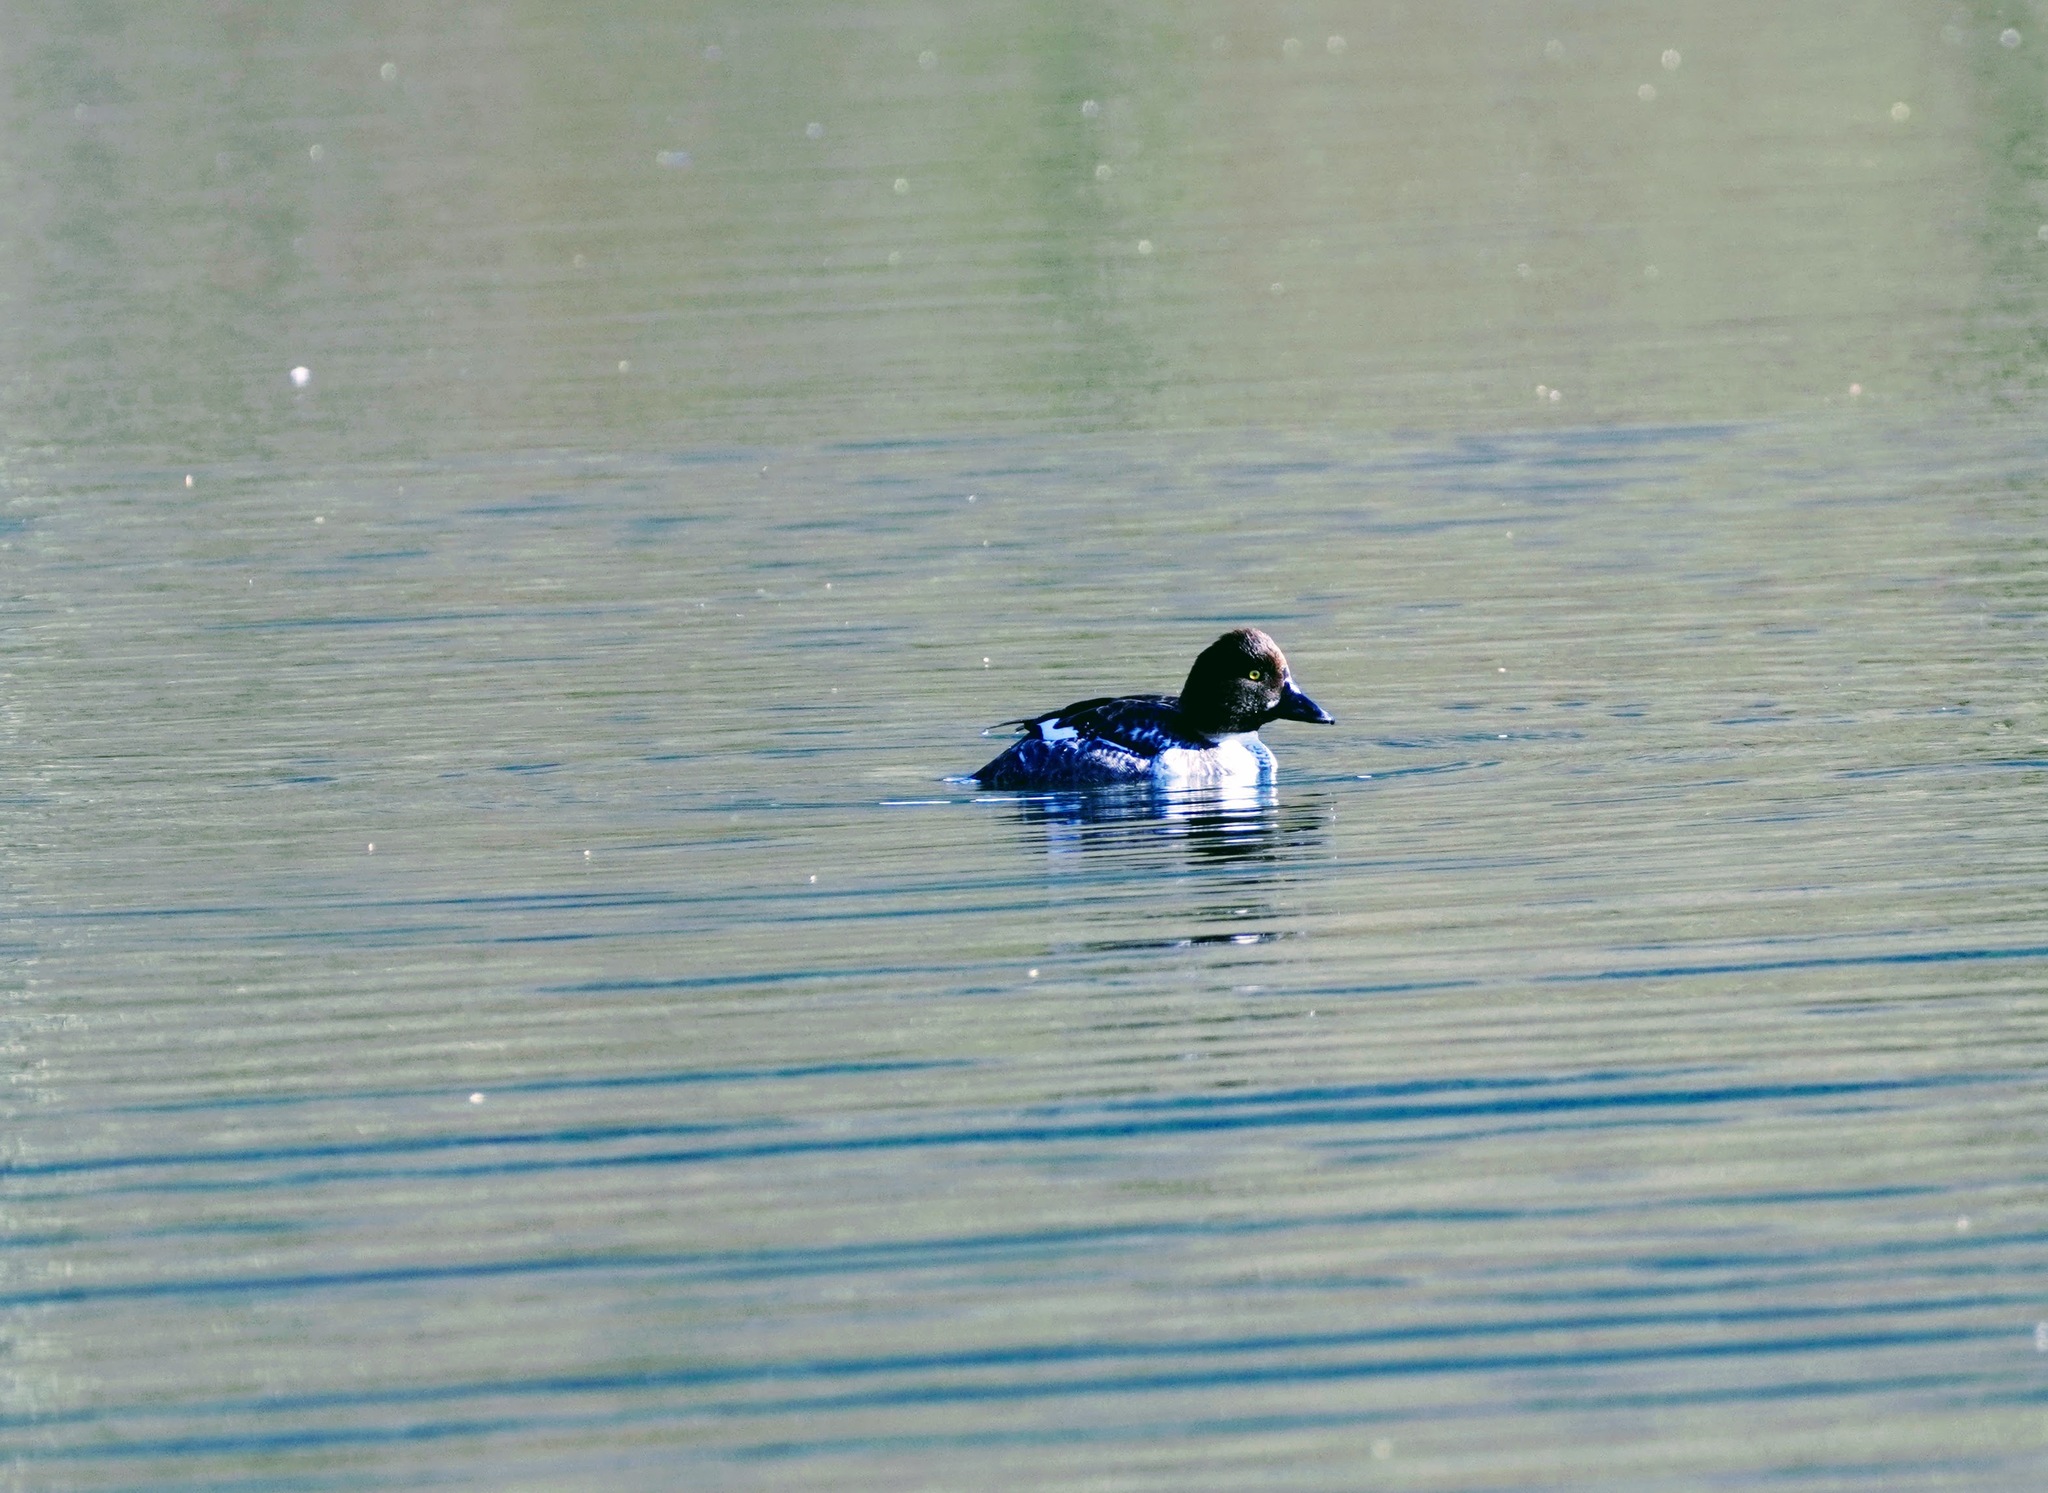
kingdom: Animalia
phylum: Chordata
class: Aves
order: Anseriformes
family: Anatidae
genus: Bucephala
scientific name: Bucephala clangula
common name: Common goldeneye
